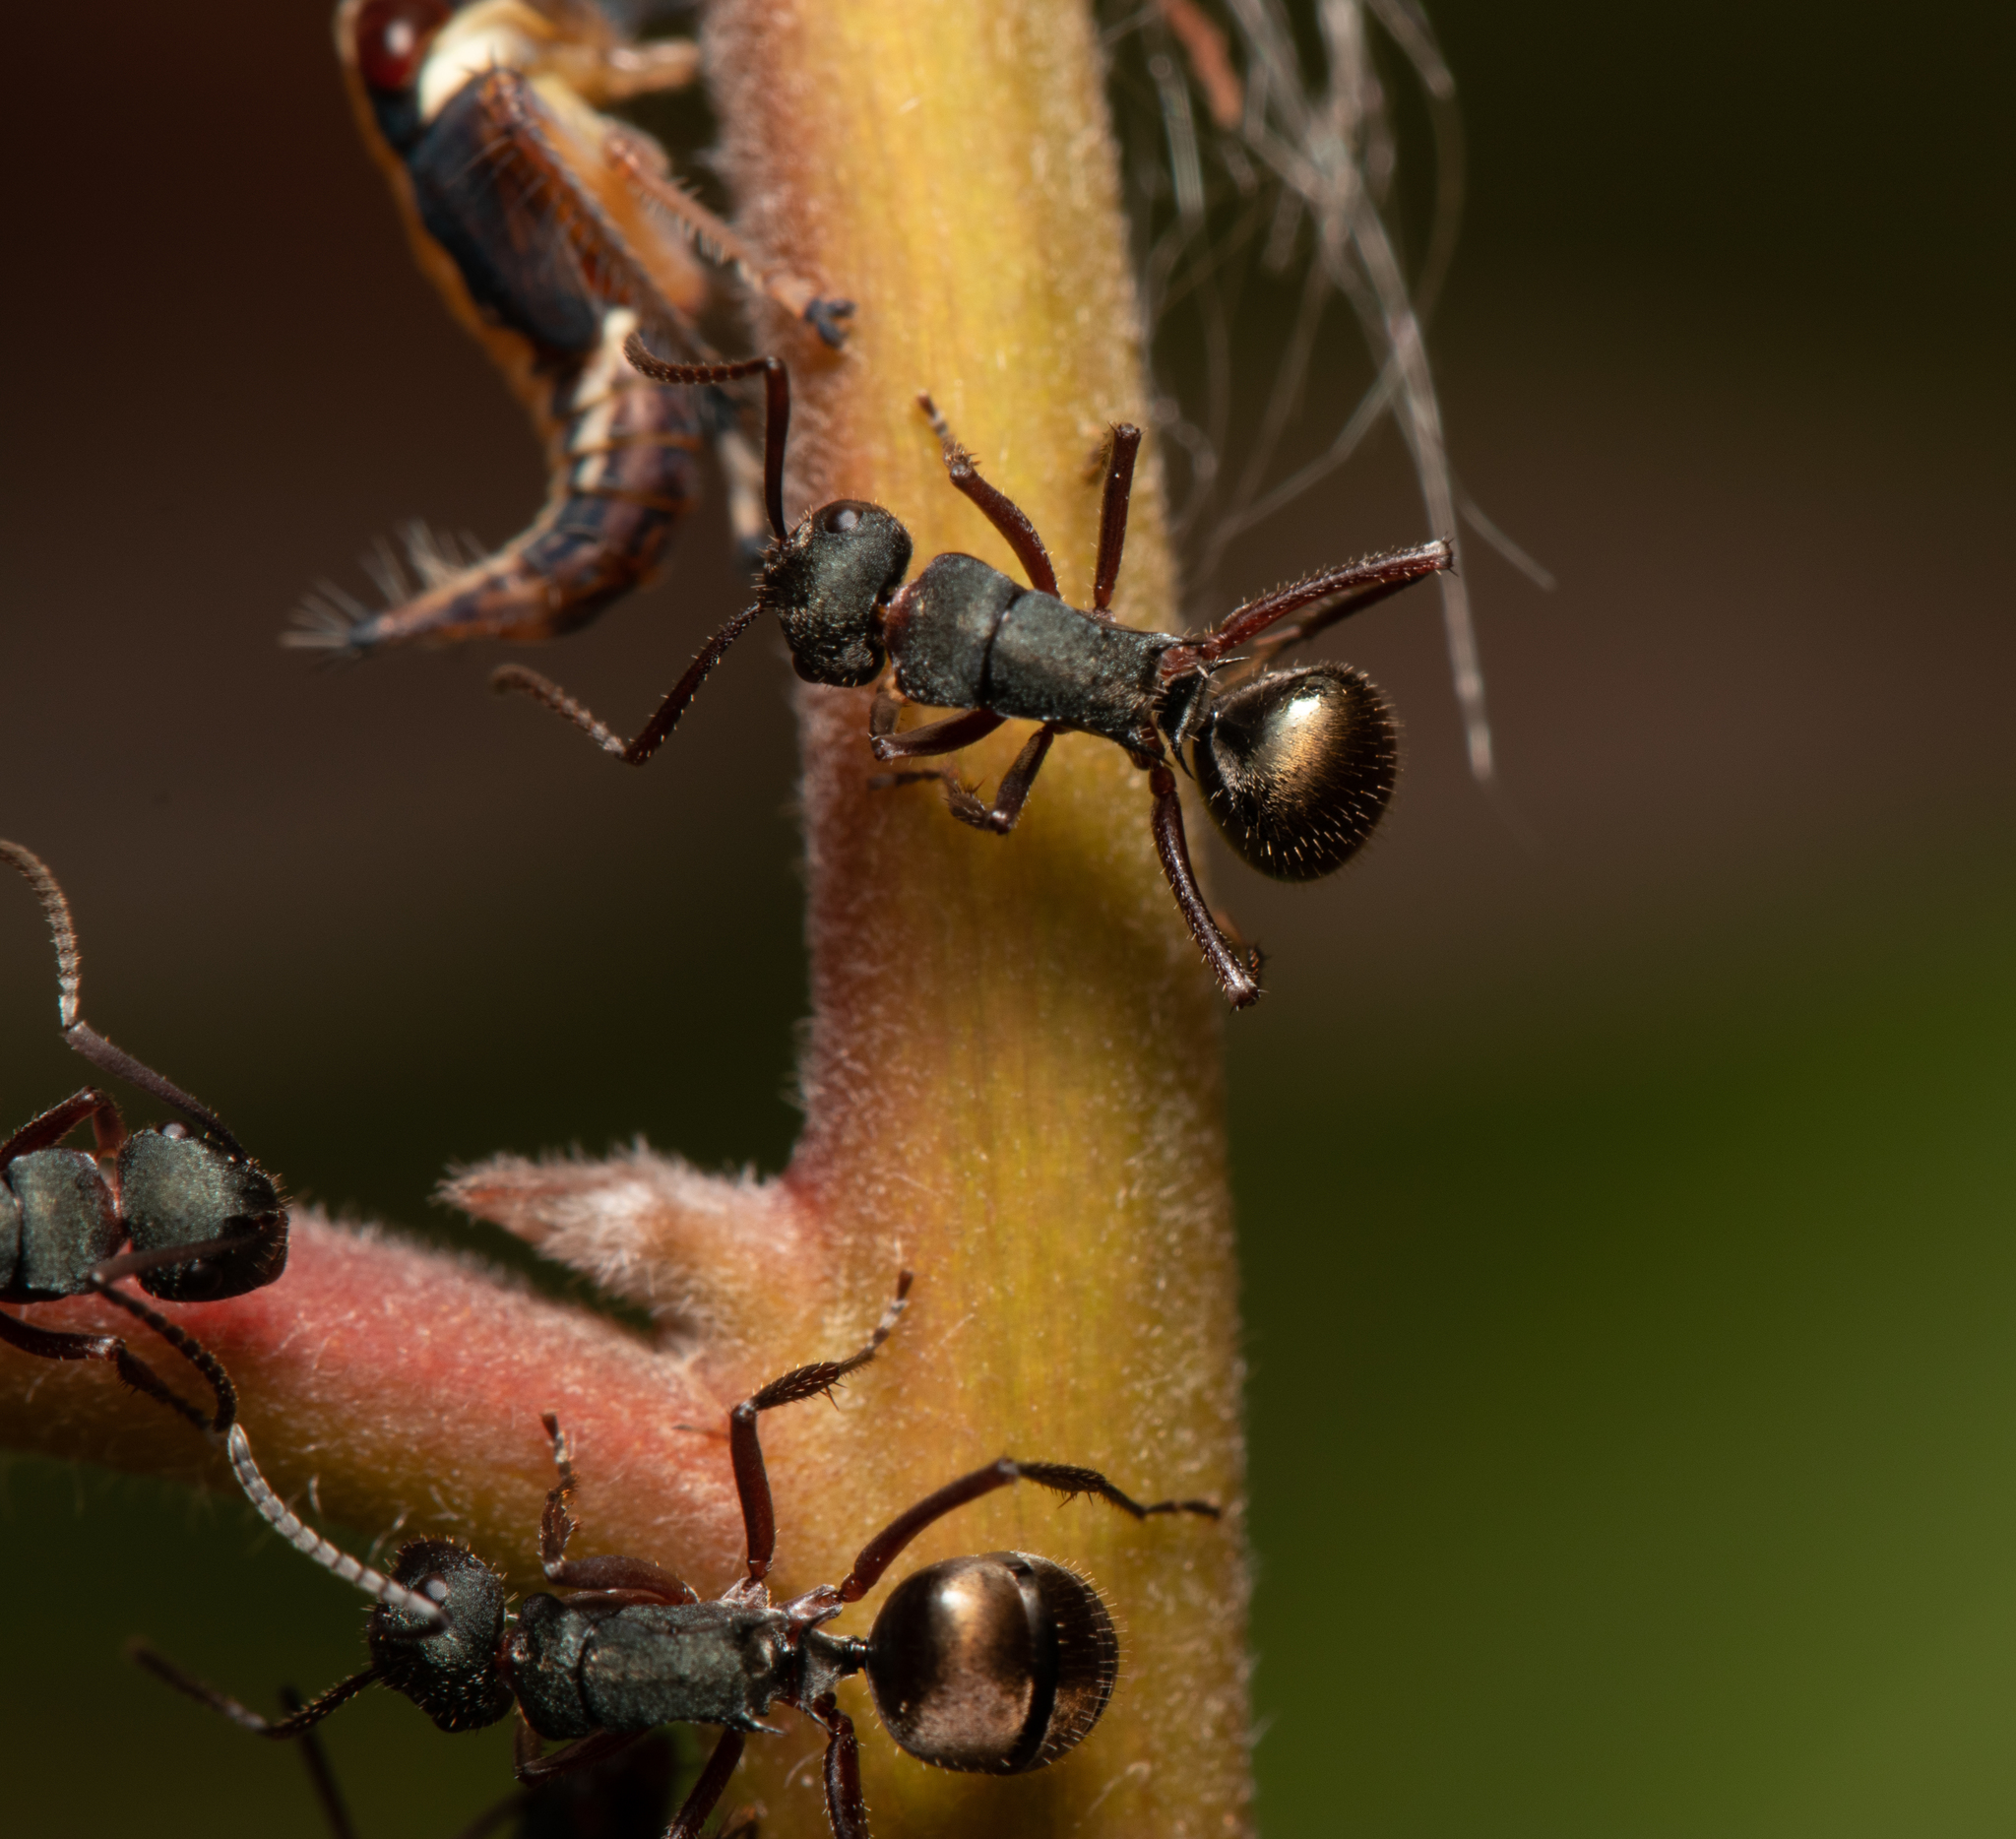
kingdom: Animalia
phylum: Arthropoda
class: Insecta
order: Hymenoptera
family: Formicidae
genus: Polyrhachis
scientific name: Polyrhachis lydiae
